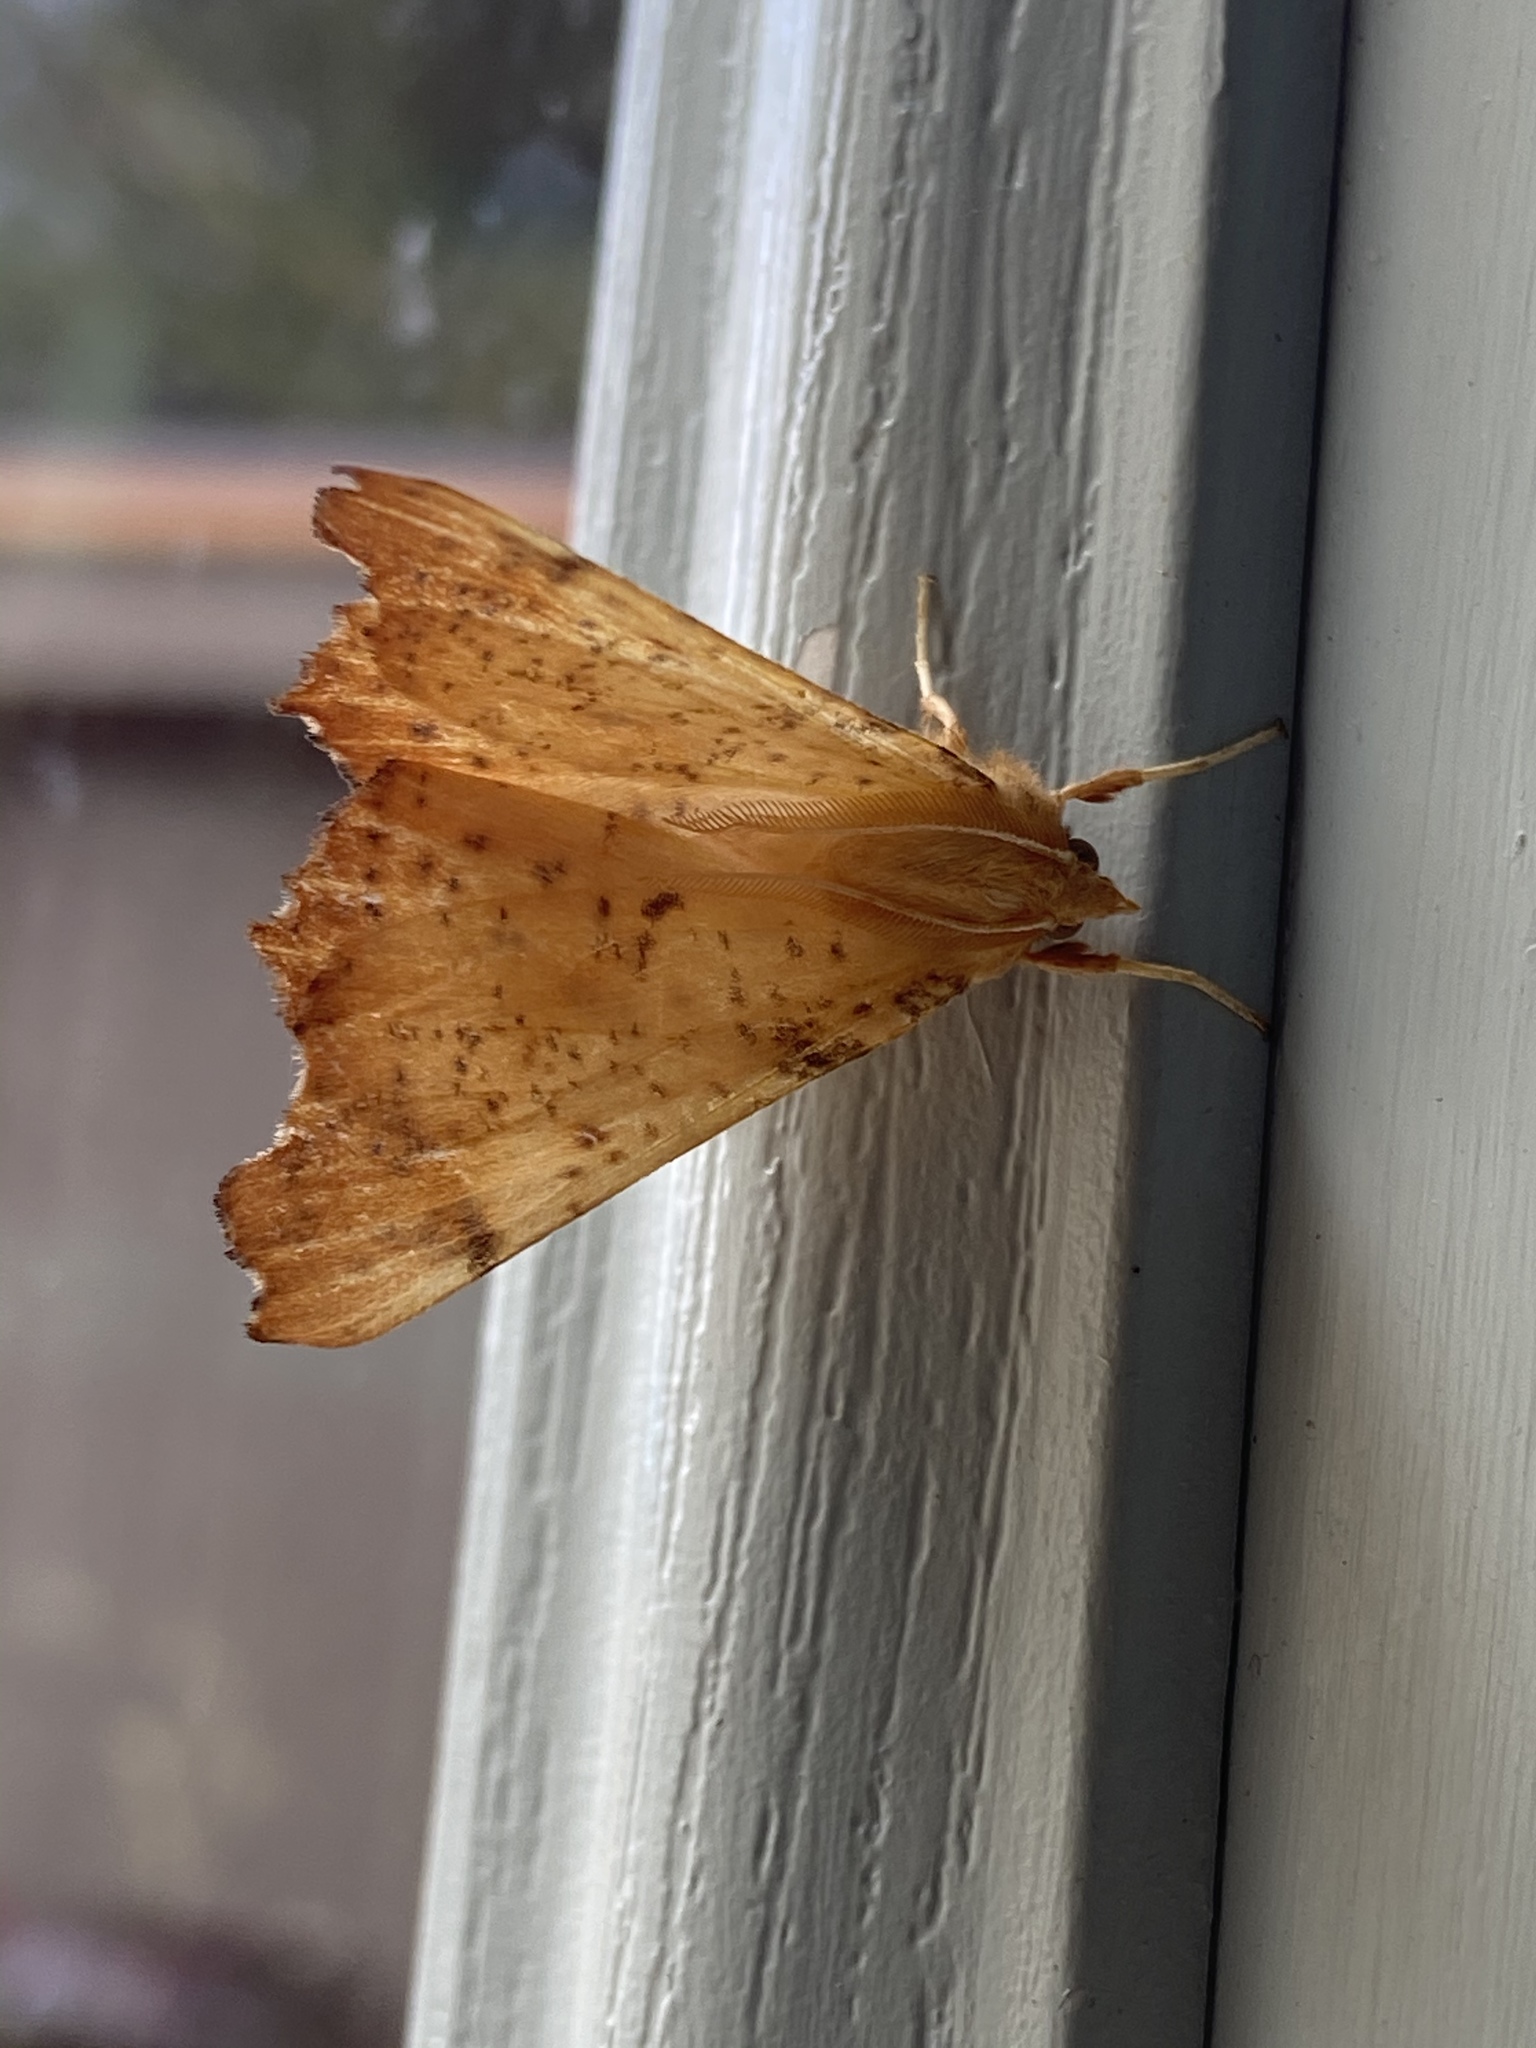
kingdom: Animalia
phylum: Arthropoda
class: Insecta
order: Lepidoptera
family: Geometridae
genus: Ennomos
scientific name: Ennomos magnaria
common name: Maple spanworm
